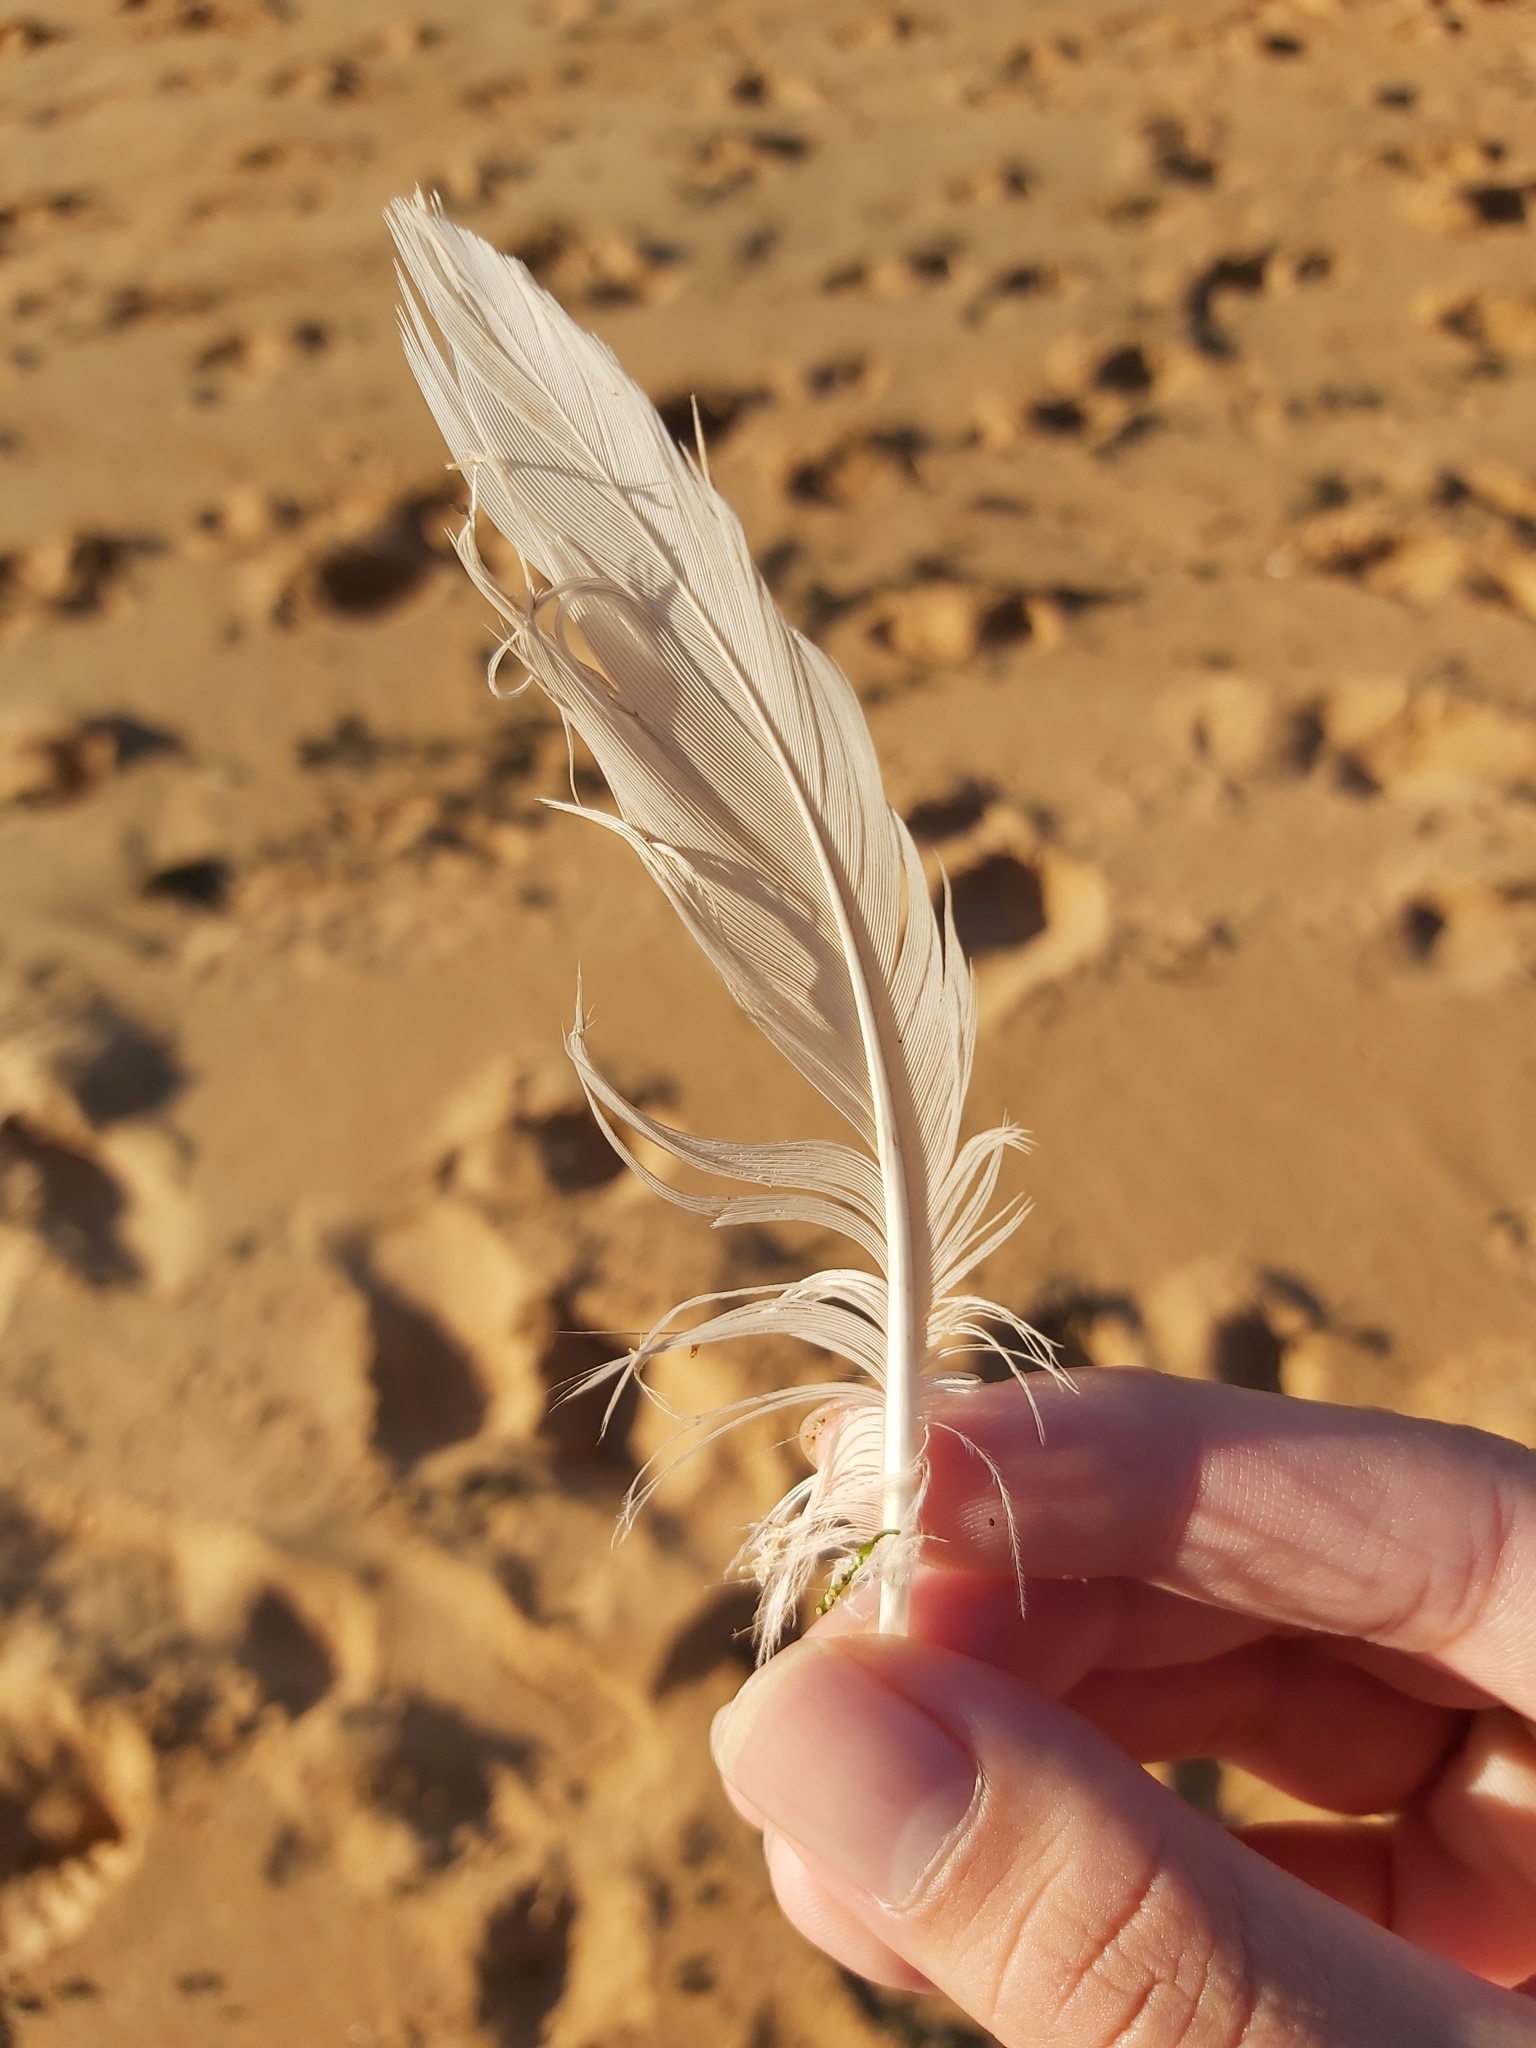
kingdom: Animalia
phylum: Chordata
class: Aves
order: Charadriiformes
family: Laridae
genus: Chroicocephalus
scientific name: Chroicocephalus novaehollandiae
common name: Silver gull
